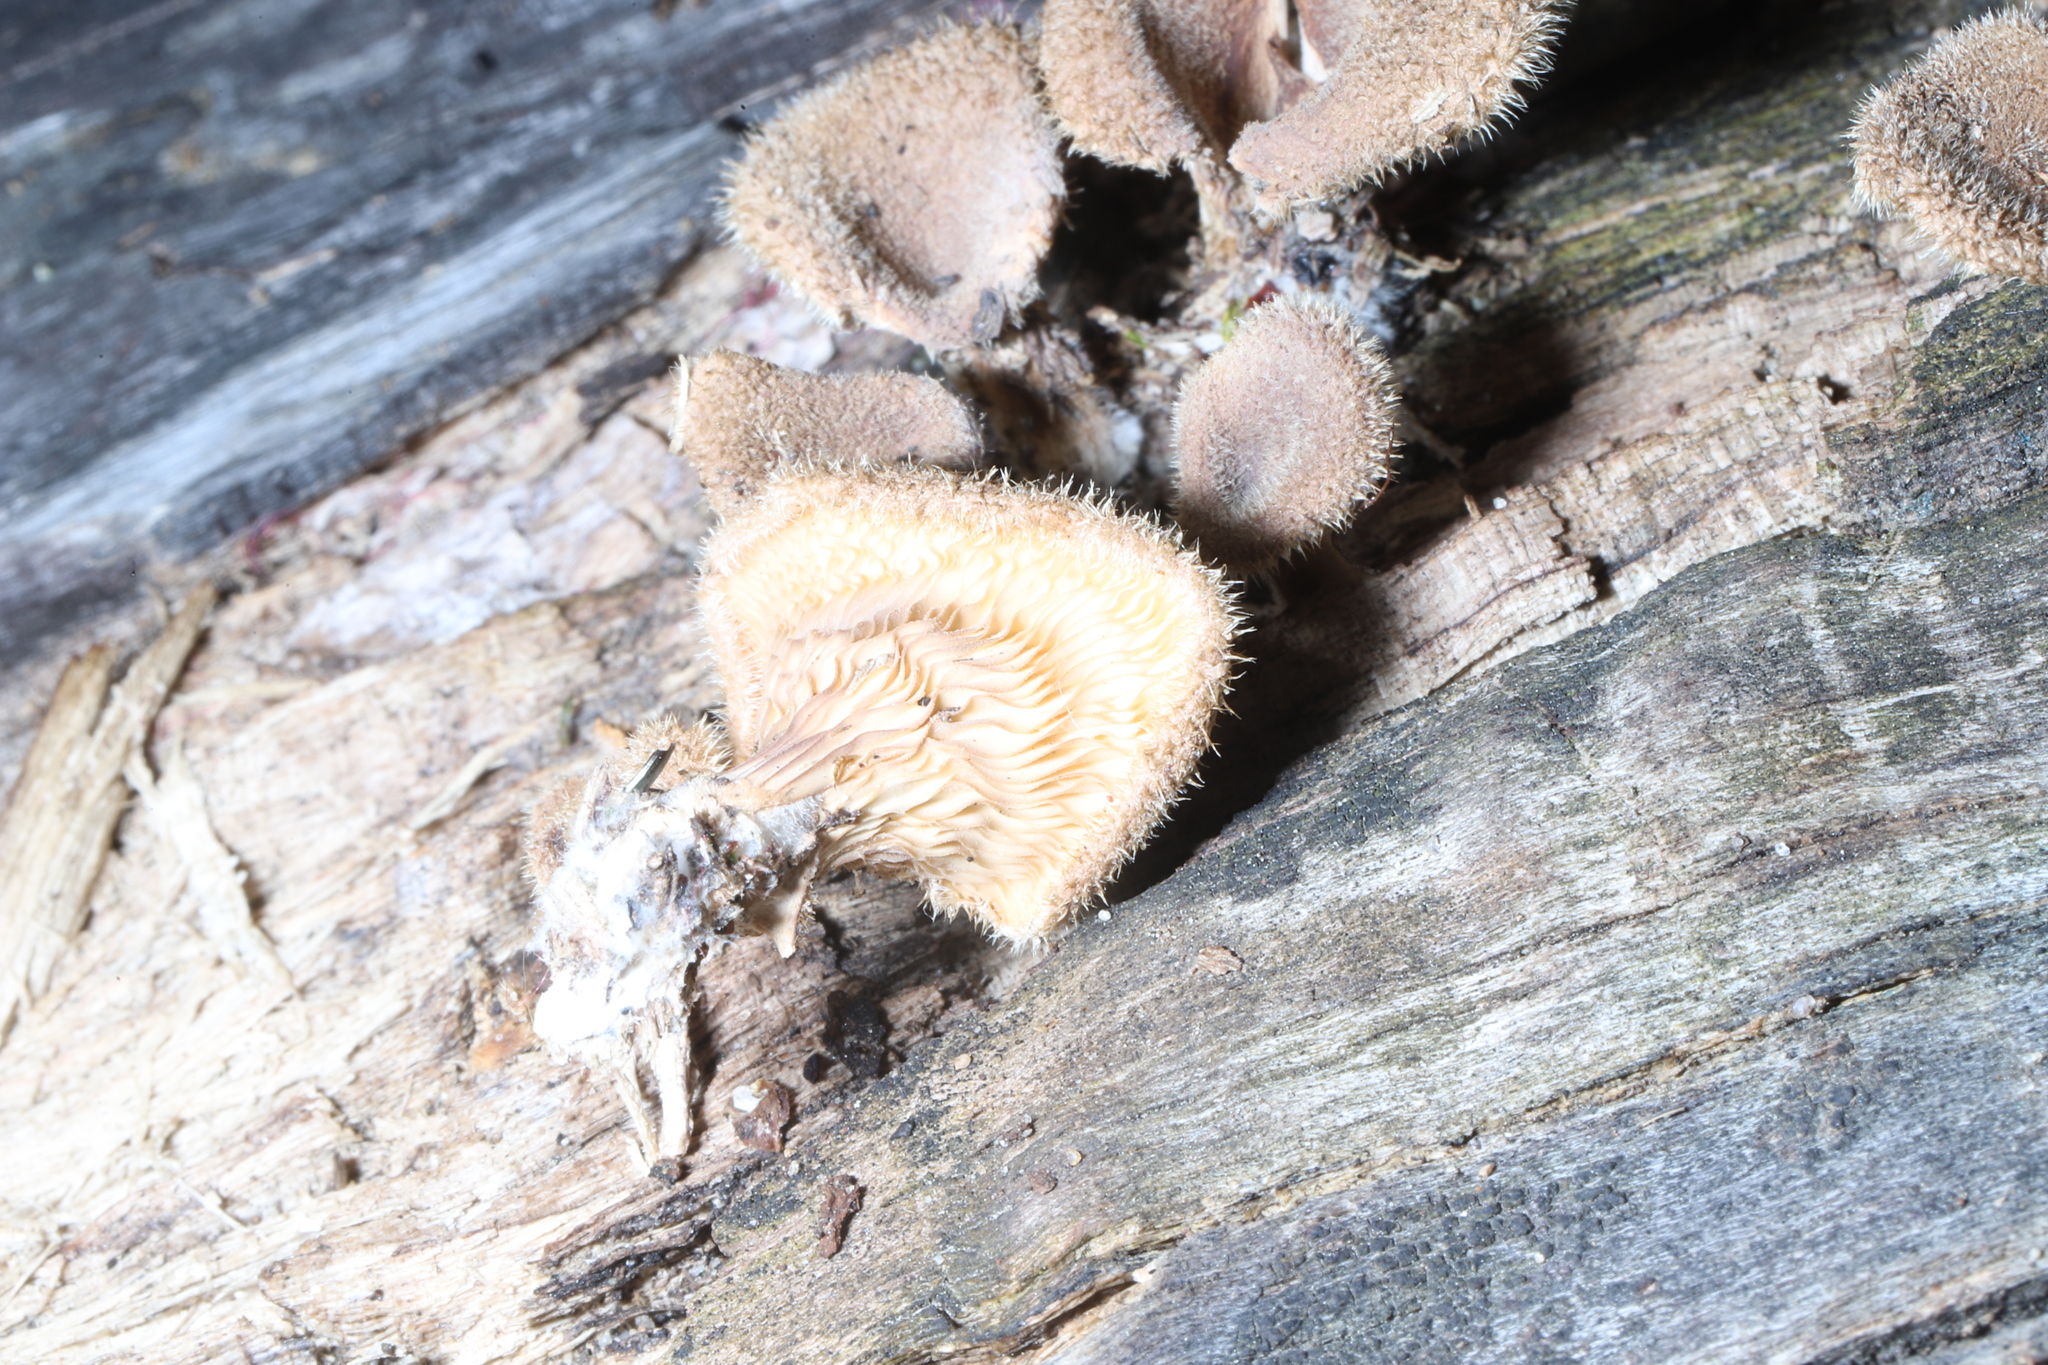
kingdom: Fungi
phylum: Basidiomycota
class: Agaricomycetes
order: Polyporales
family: Panaceae
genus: Panus
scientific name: Panus neostrigosus
